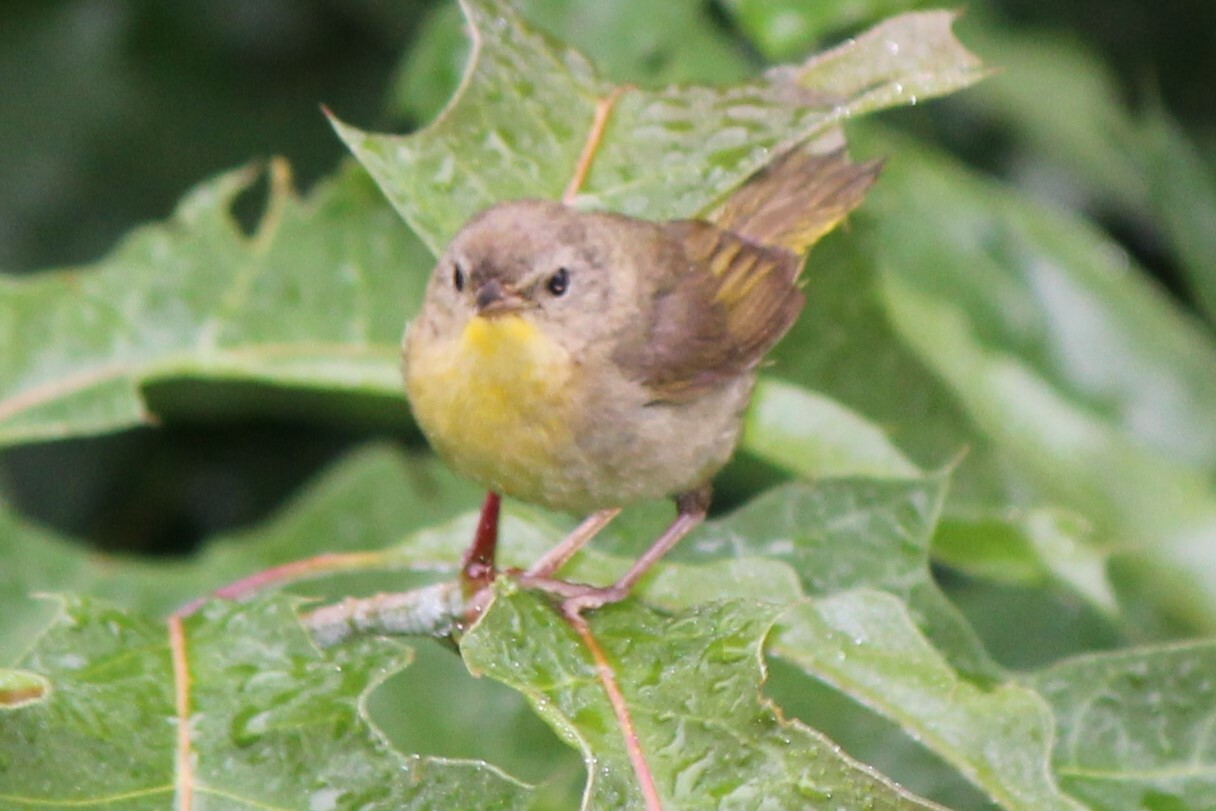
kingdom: Animalia
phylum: Chordata
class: Aves
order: Passeriformes
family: Parulidae
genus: Geothlypis
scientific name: Geothlypis trichas
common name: Common yellowthroat
